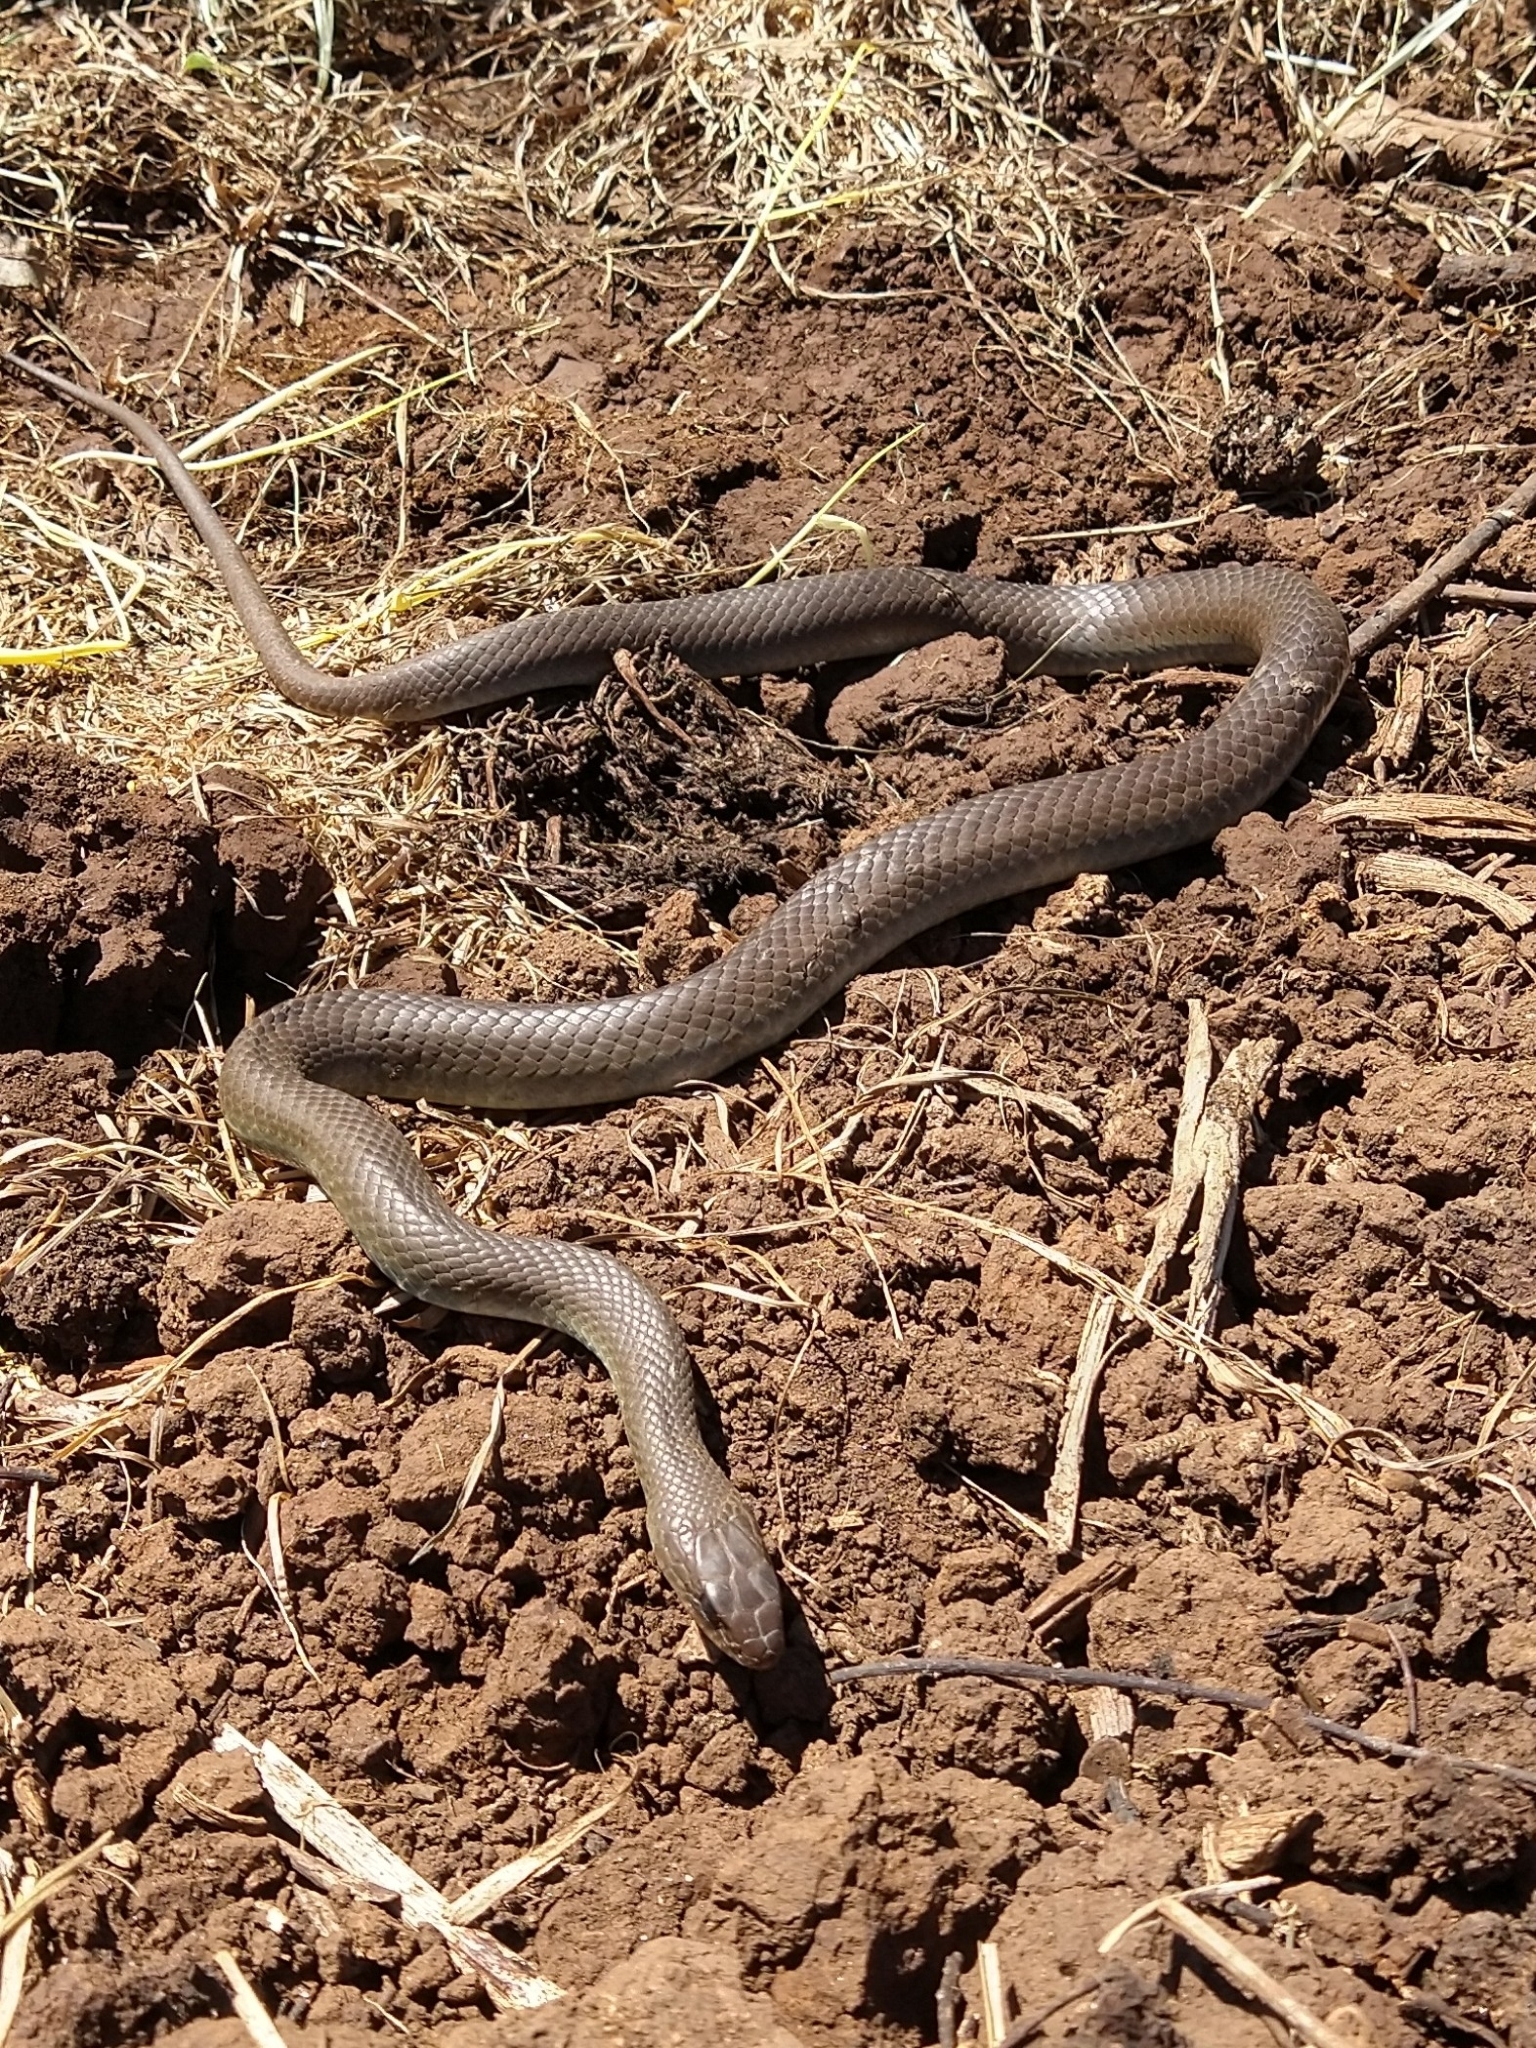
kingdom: Animalia
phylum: Chordata
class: Squamata
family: Colubridae
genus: Coluber
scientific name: Coluber constrictor
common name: Eastern racer
